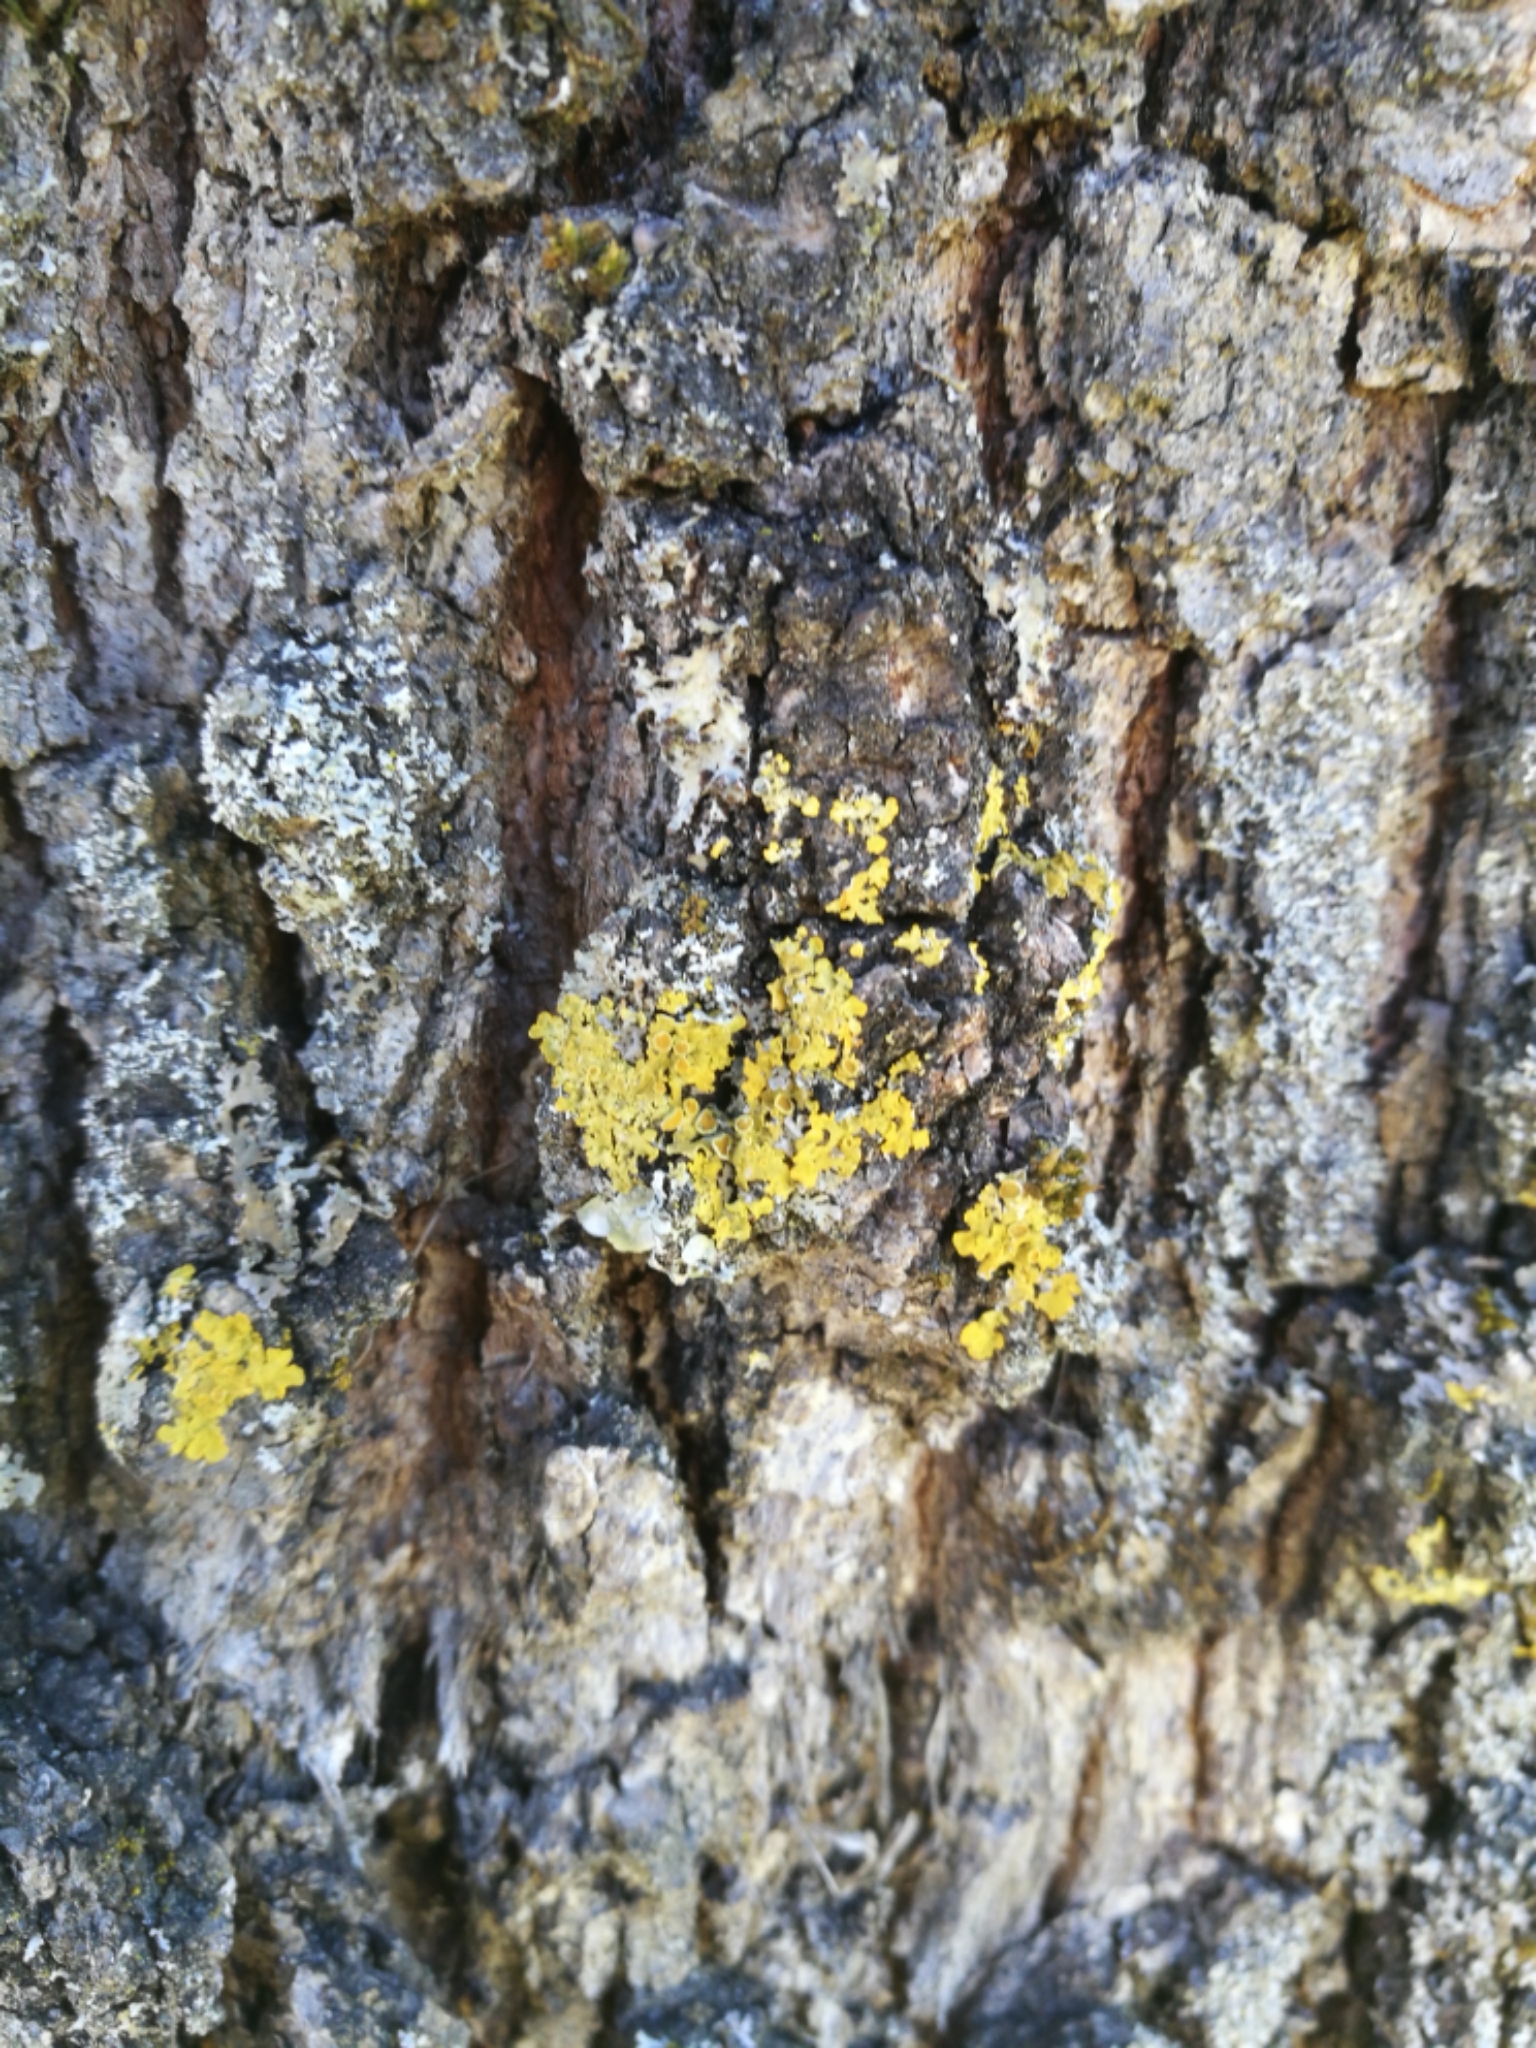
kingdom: Fungi
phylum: Ascomycota
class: Lecanoromycetes
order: Teloschistales
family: Teloschistaceae
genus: Xanthoria
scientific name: Xanthoria parietina
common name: Common orange lichen
